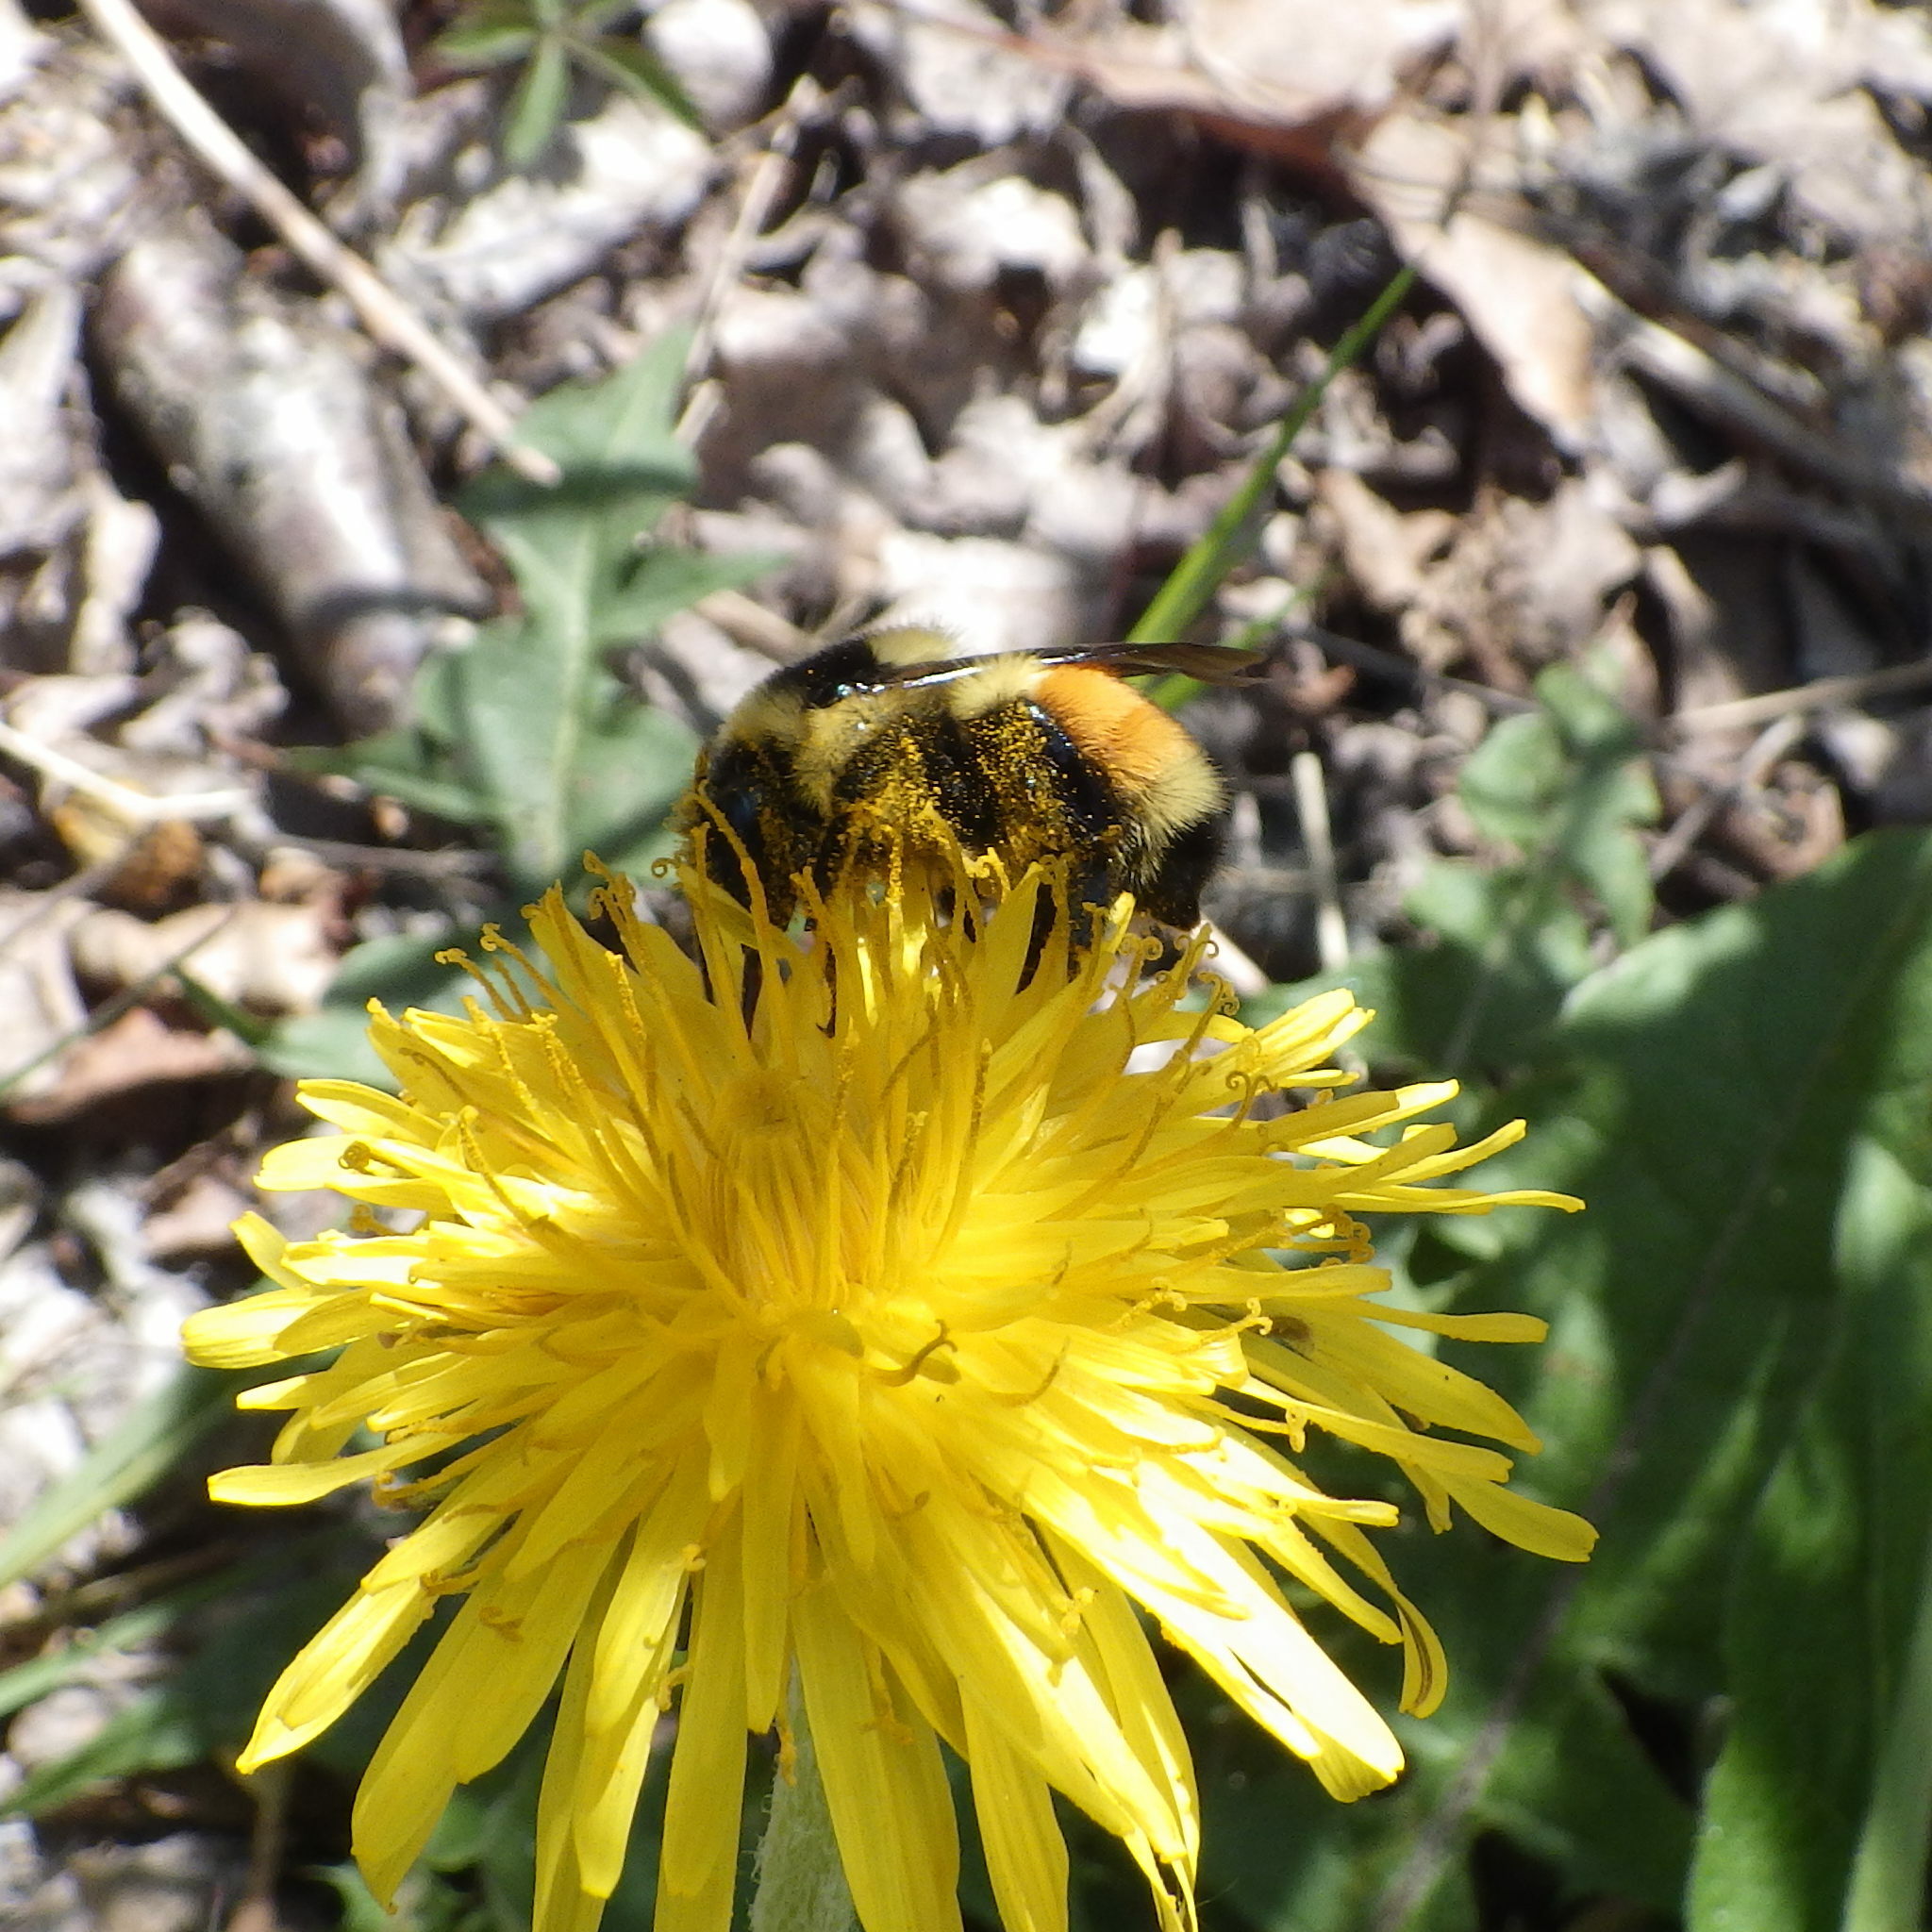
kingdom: Animalia
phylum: Arthropoda
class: Insecta
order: Hymenoptera
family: Apidae
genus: Bombus
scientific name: Bombus ternarius
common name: Tri-colored bumble bee
